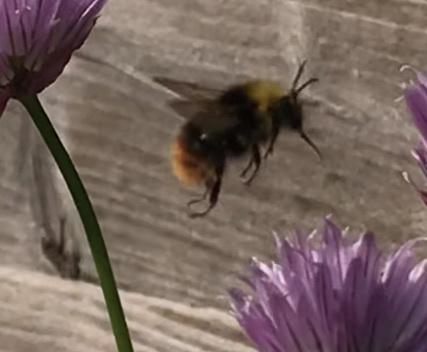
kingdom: Animalia
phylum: Arthropoda
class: Insecta
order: Hymenoptera
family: Apidae
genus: Bombus
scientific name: Bombus pratorum
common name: Early humble-bee
